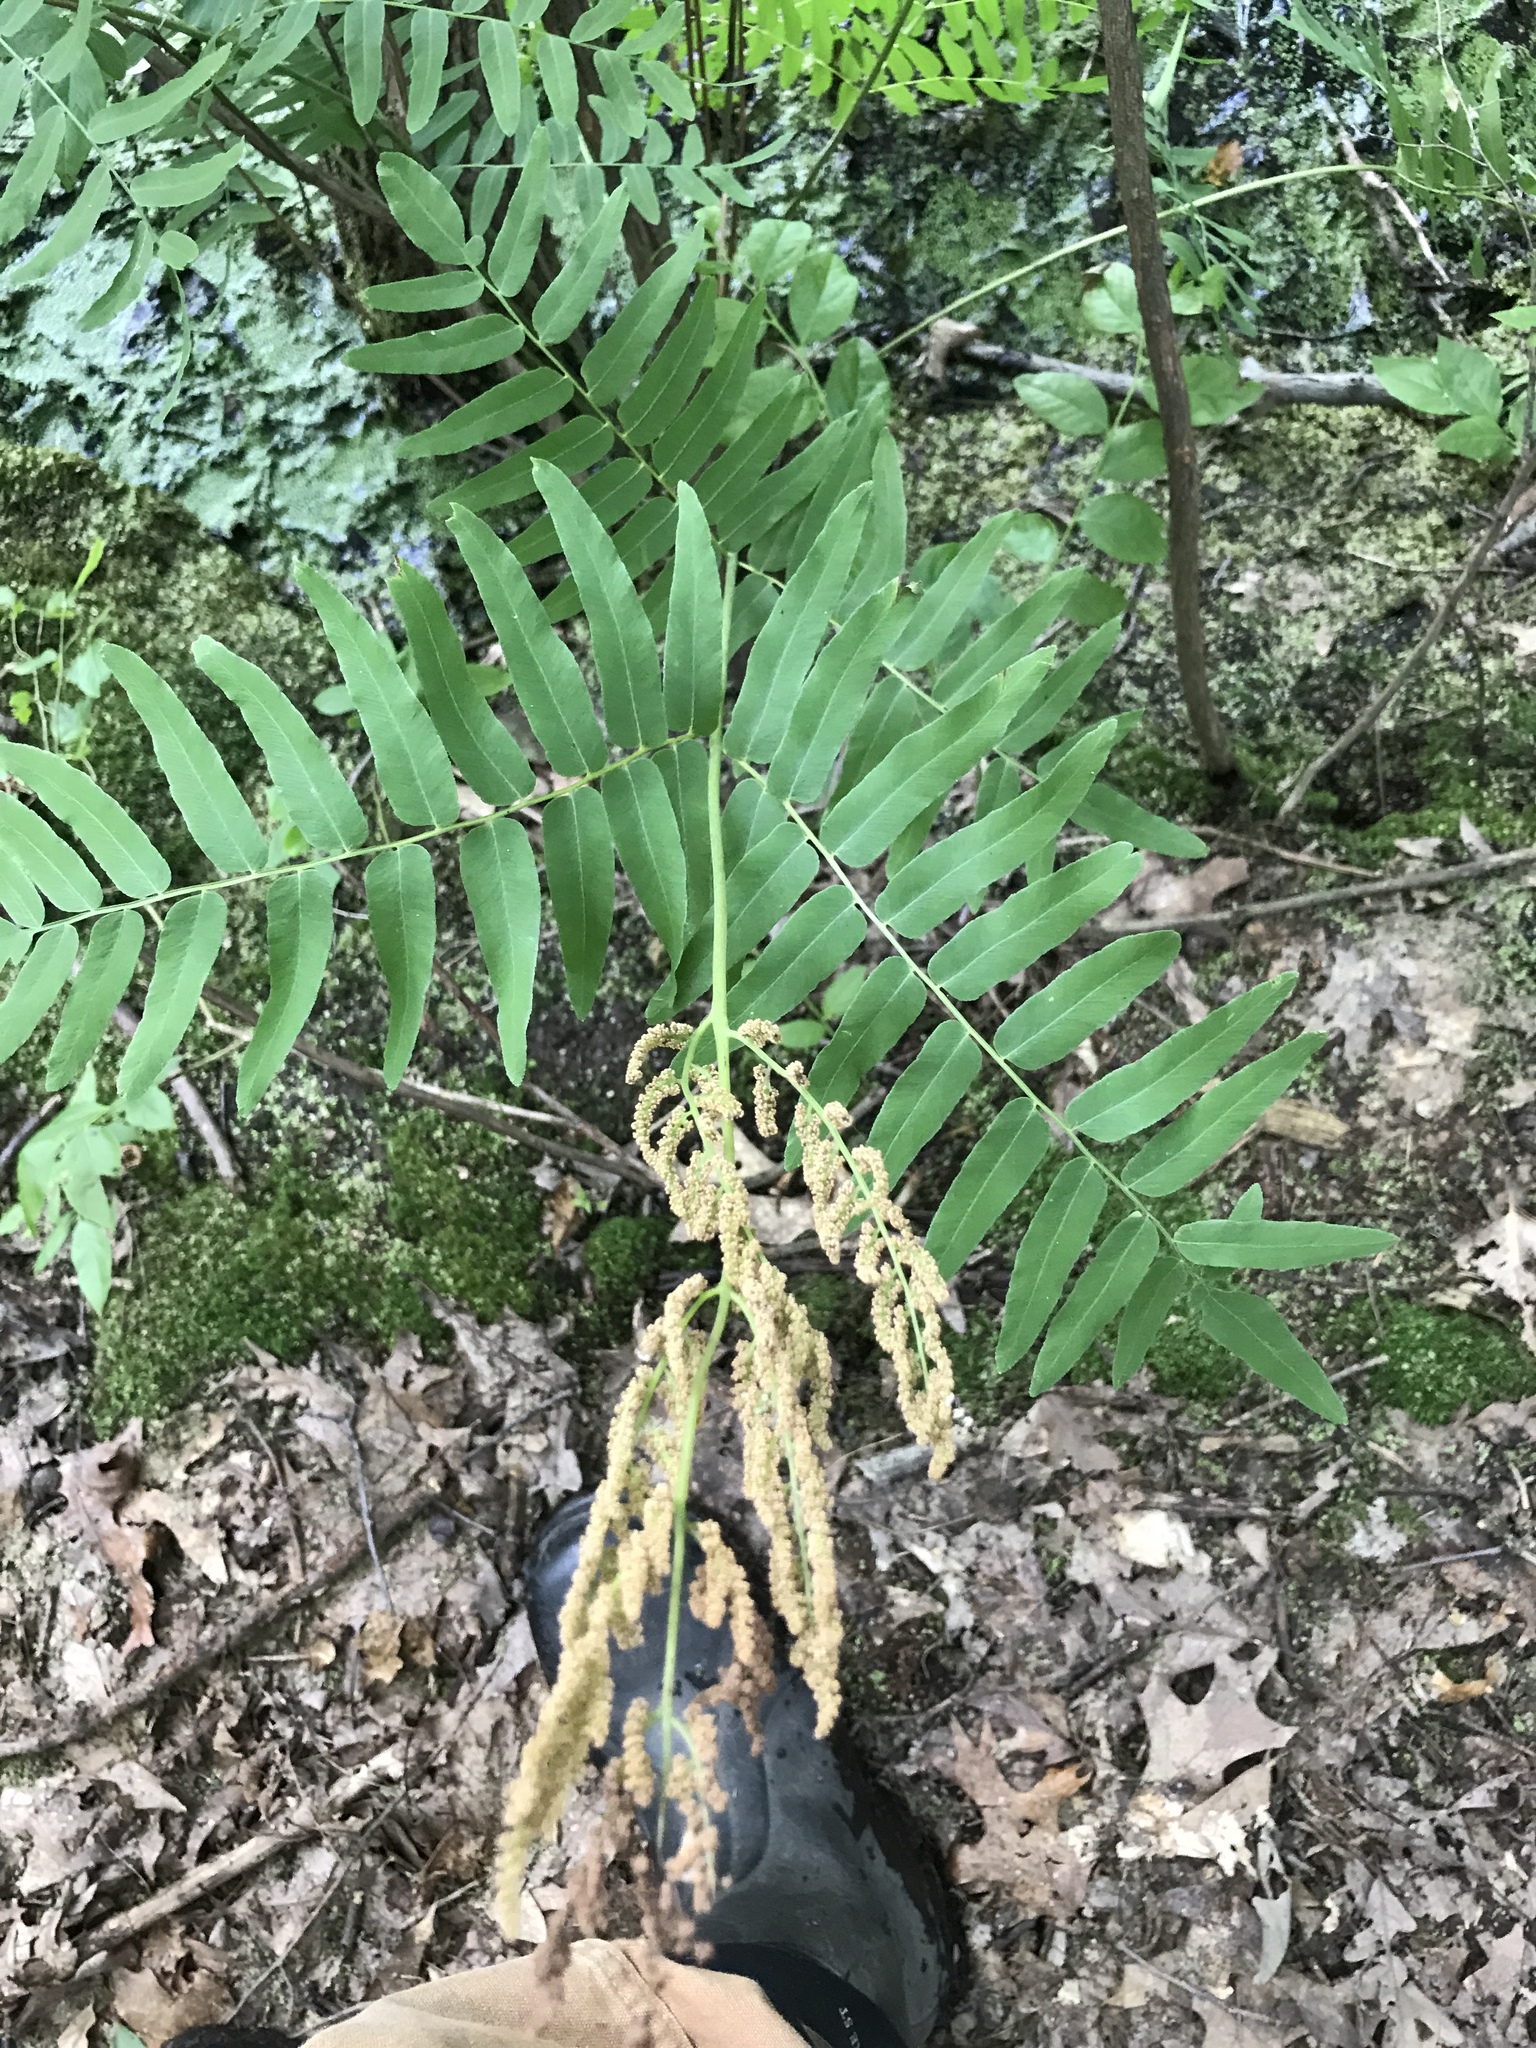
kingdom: Plantae
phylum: Tracheophyta
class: Polypodiopsida
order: Osmundales
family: Osmundaceae
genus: Osmunda
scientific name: Osmunda spectabilis
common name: American royal fern
